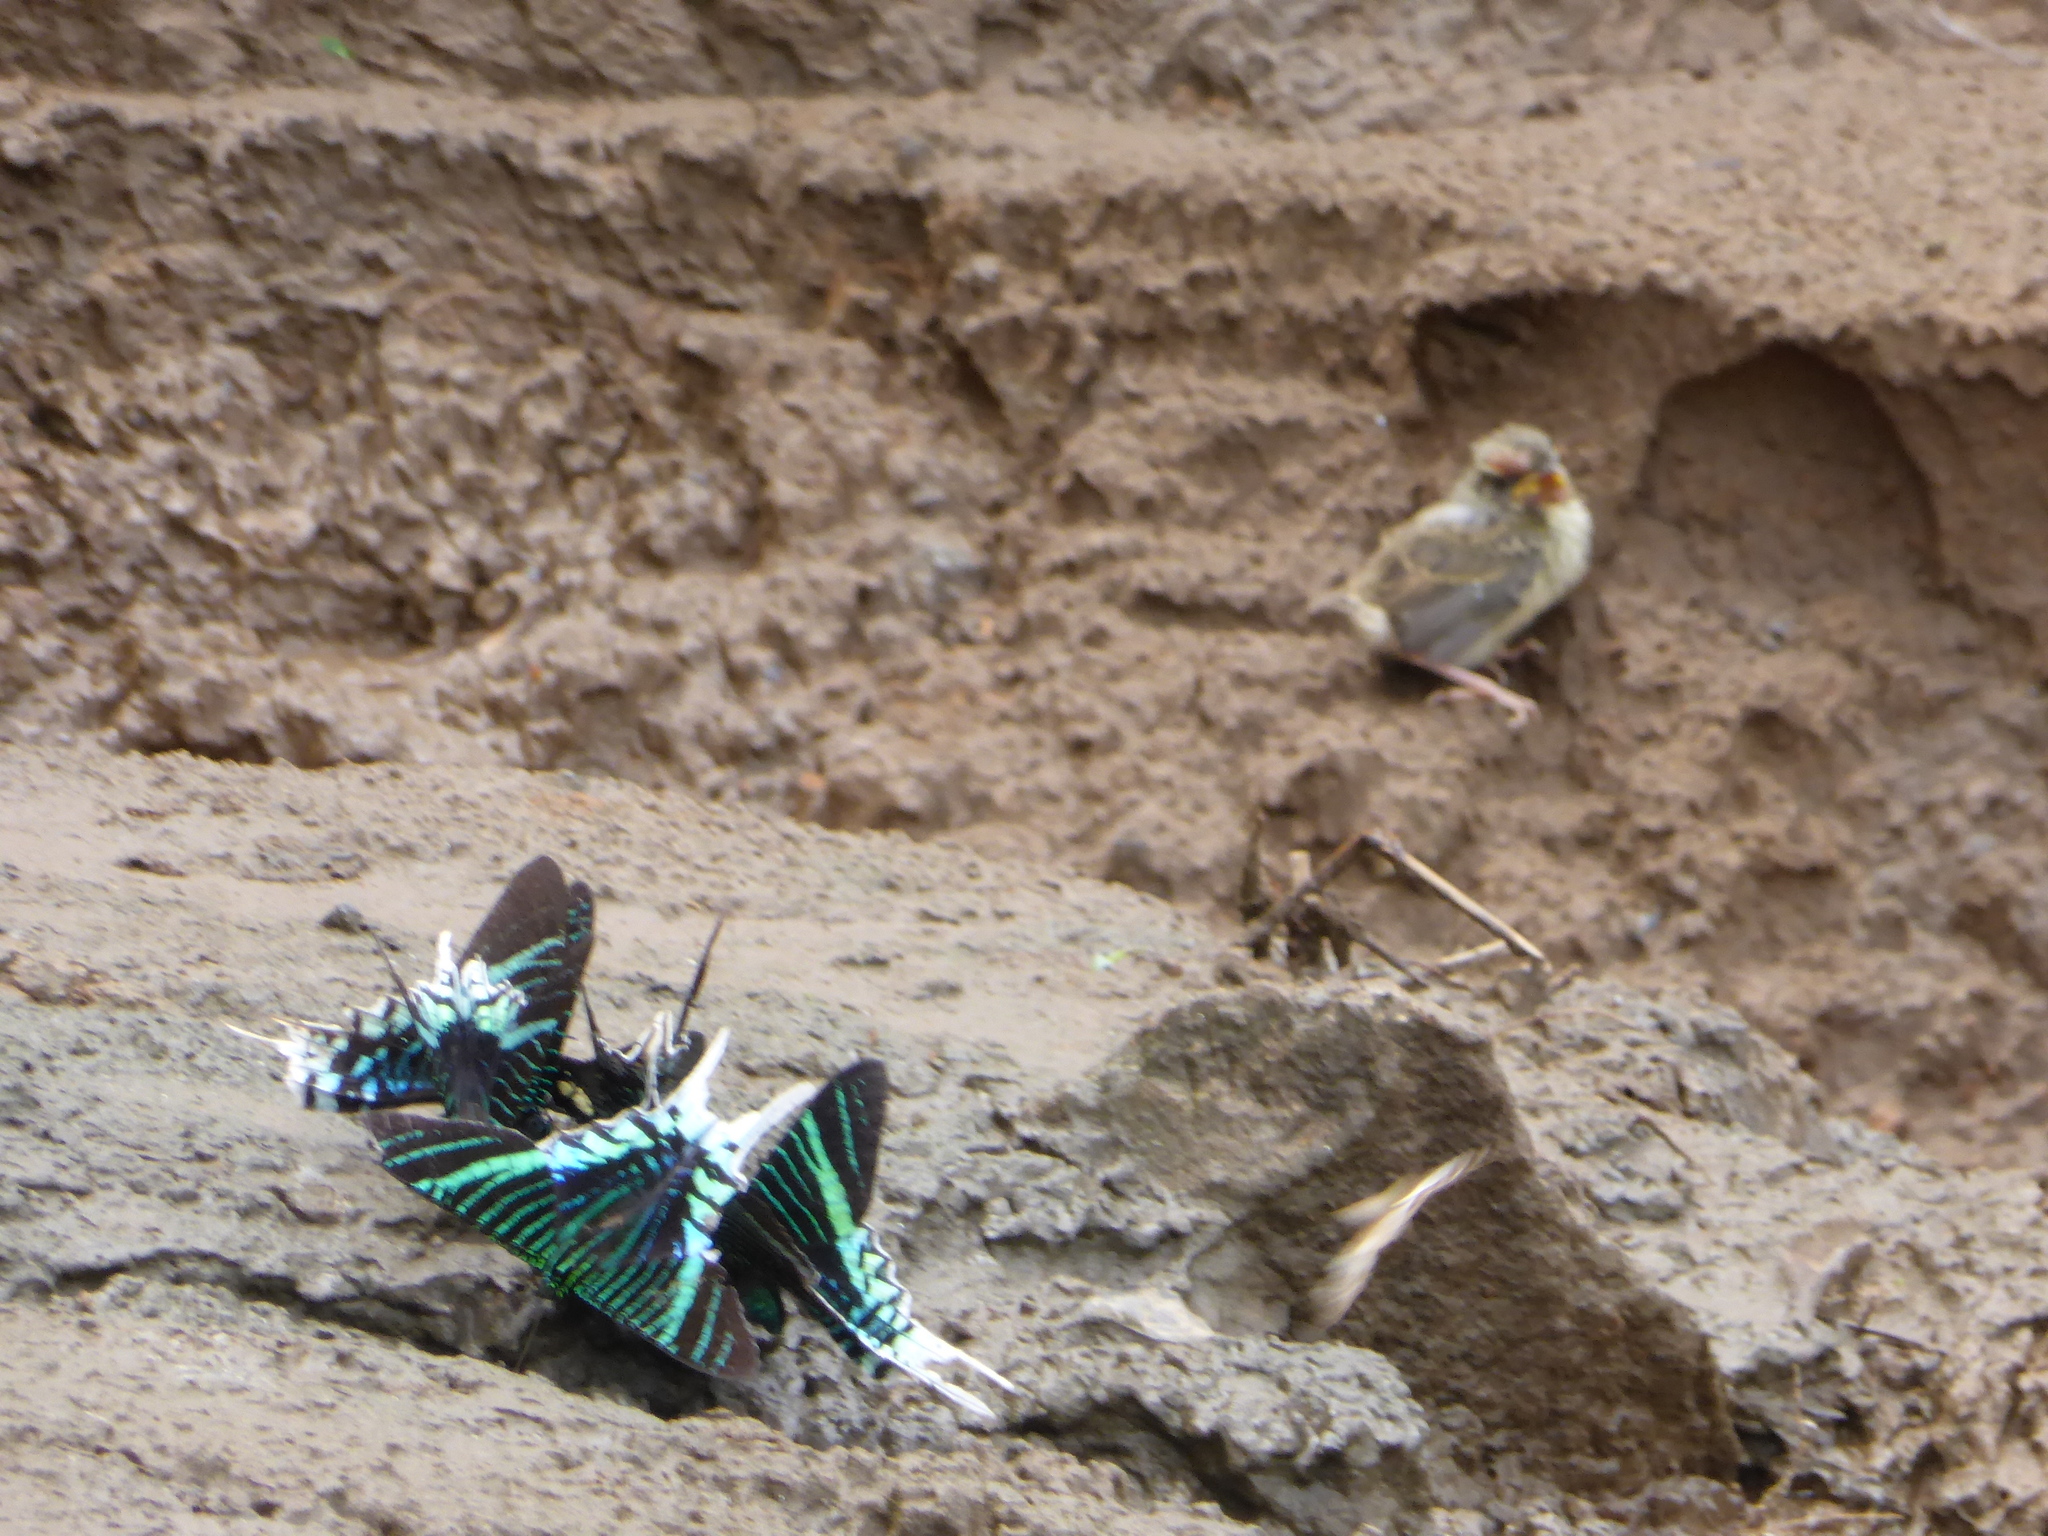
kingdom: Animalia
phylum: Arthropoda
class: Insecta
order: Lepidoptera
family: Uraniidae
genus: Urania
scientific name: Urania leilus
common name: Peacock moth
